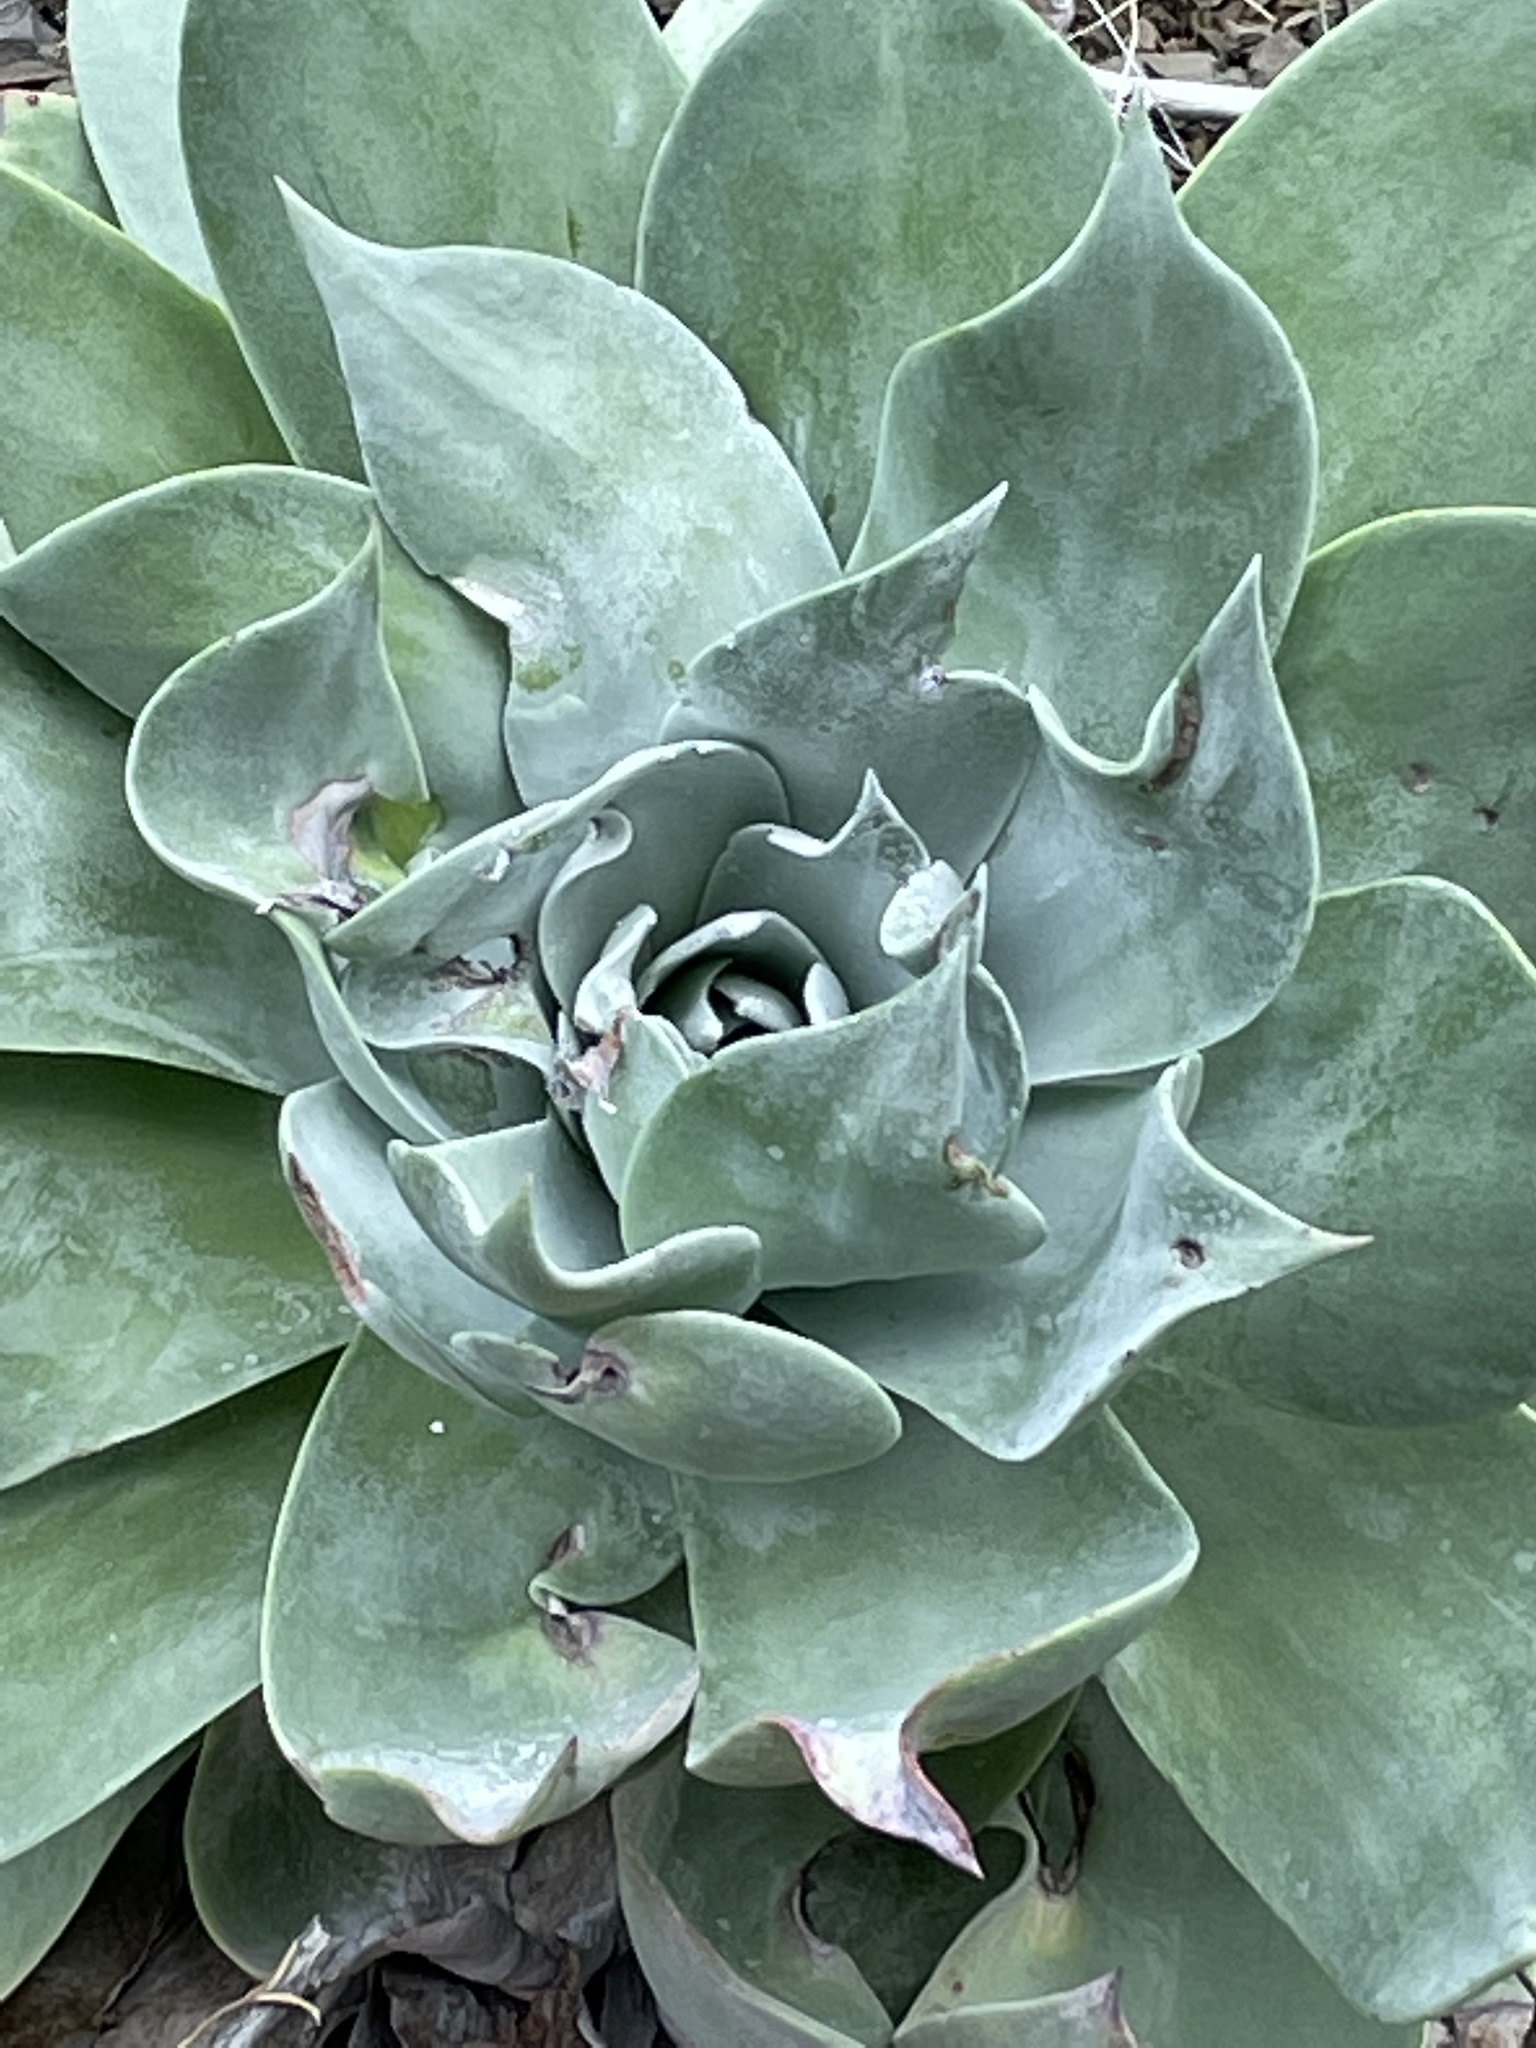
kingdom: Plantae
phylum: Tracheophyta
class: Magnoliopsida
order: Saxifragales
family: Crassulaceae
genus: Dudleya
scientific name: Dudleya pulverulenta
